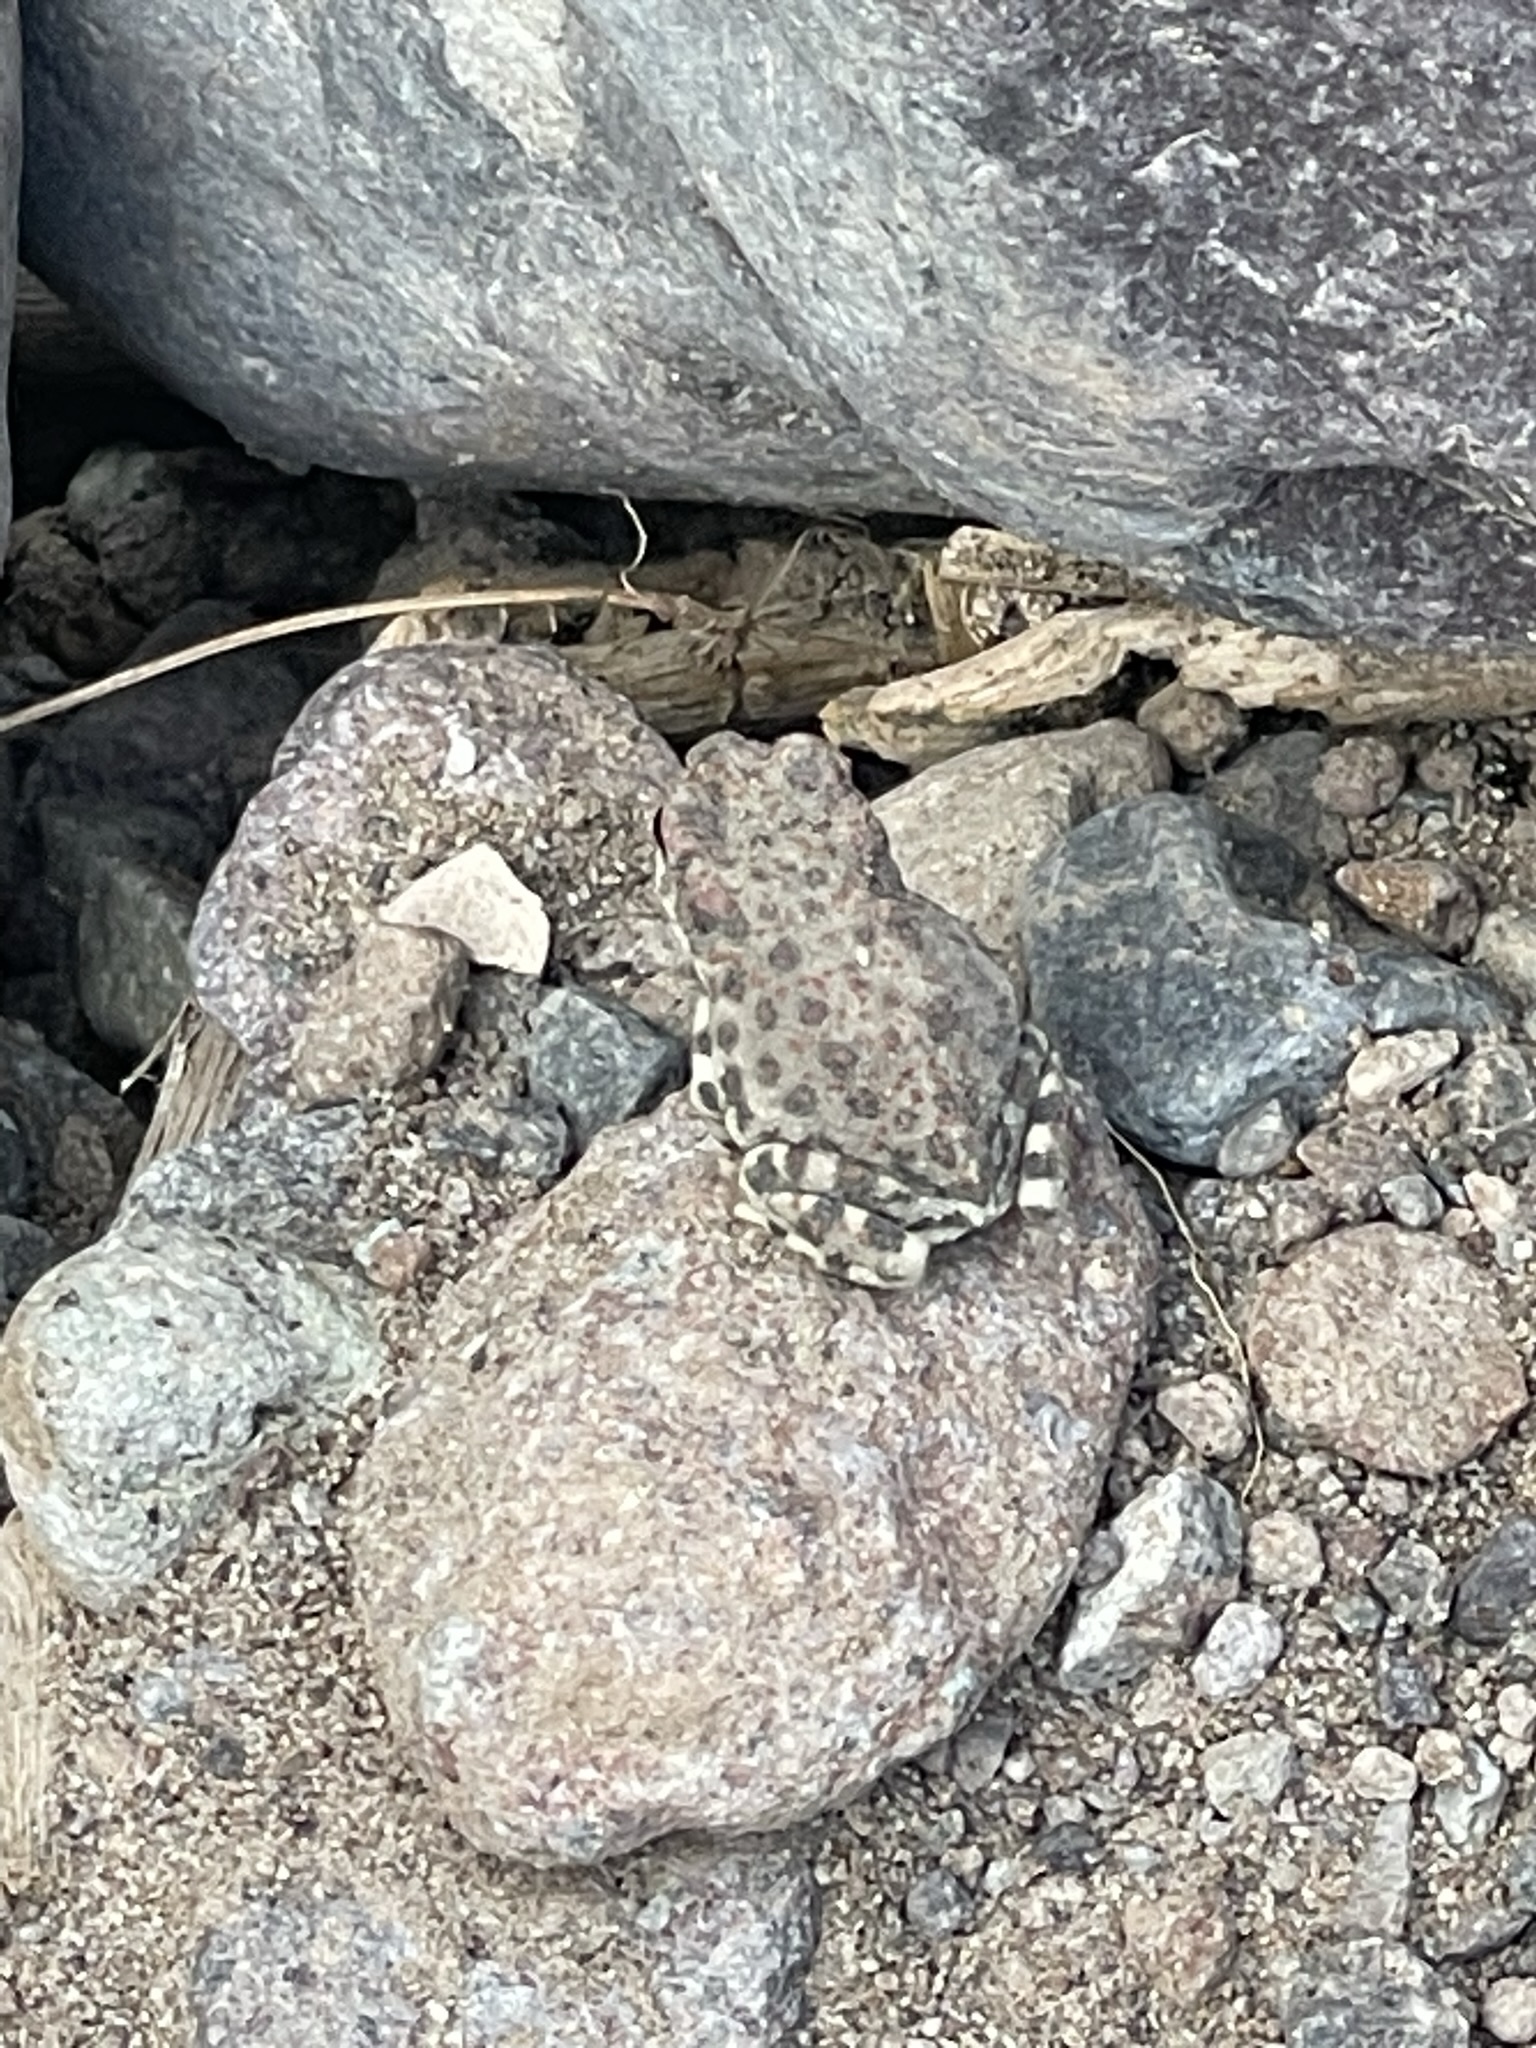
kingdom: Animalia
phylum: Chordata
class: Amphibia
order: Anura
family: Bufonidae
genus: Anaxyrus
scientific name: Anaxyrus punctatus
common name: Red-spotted toad
